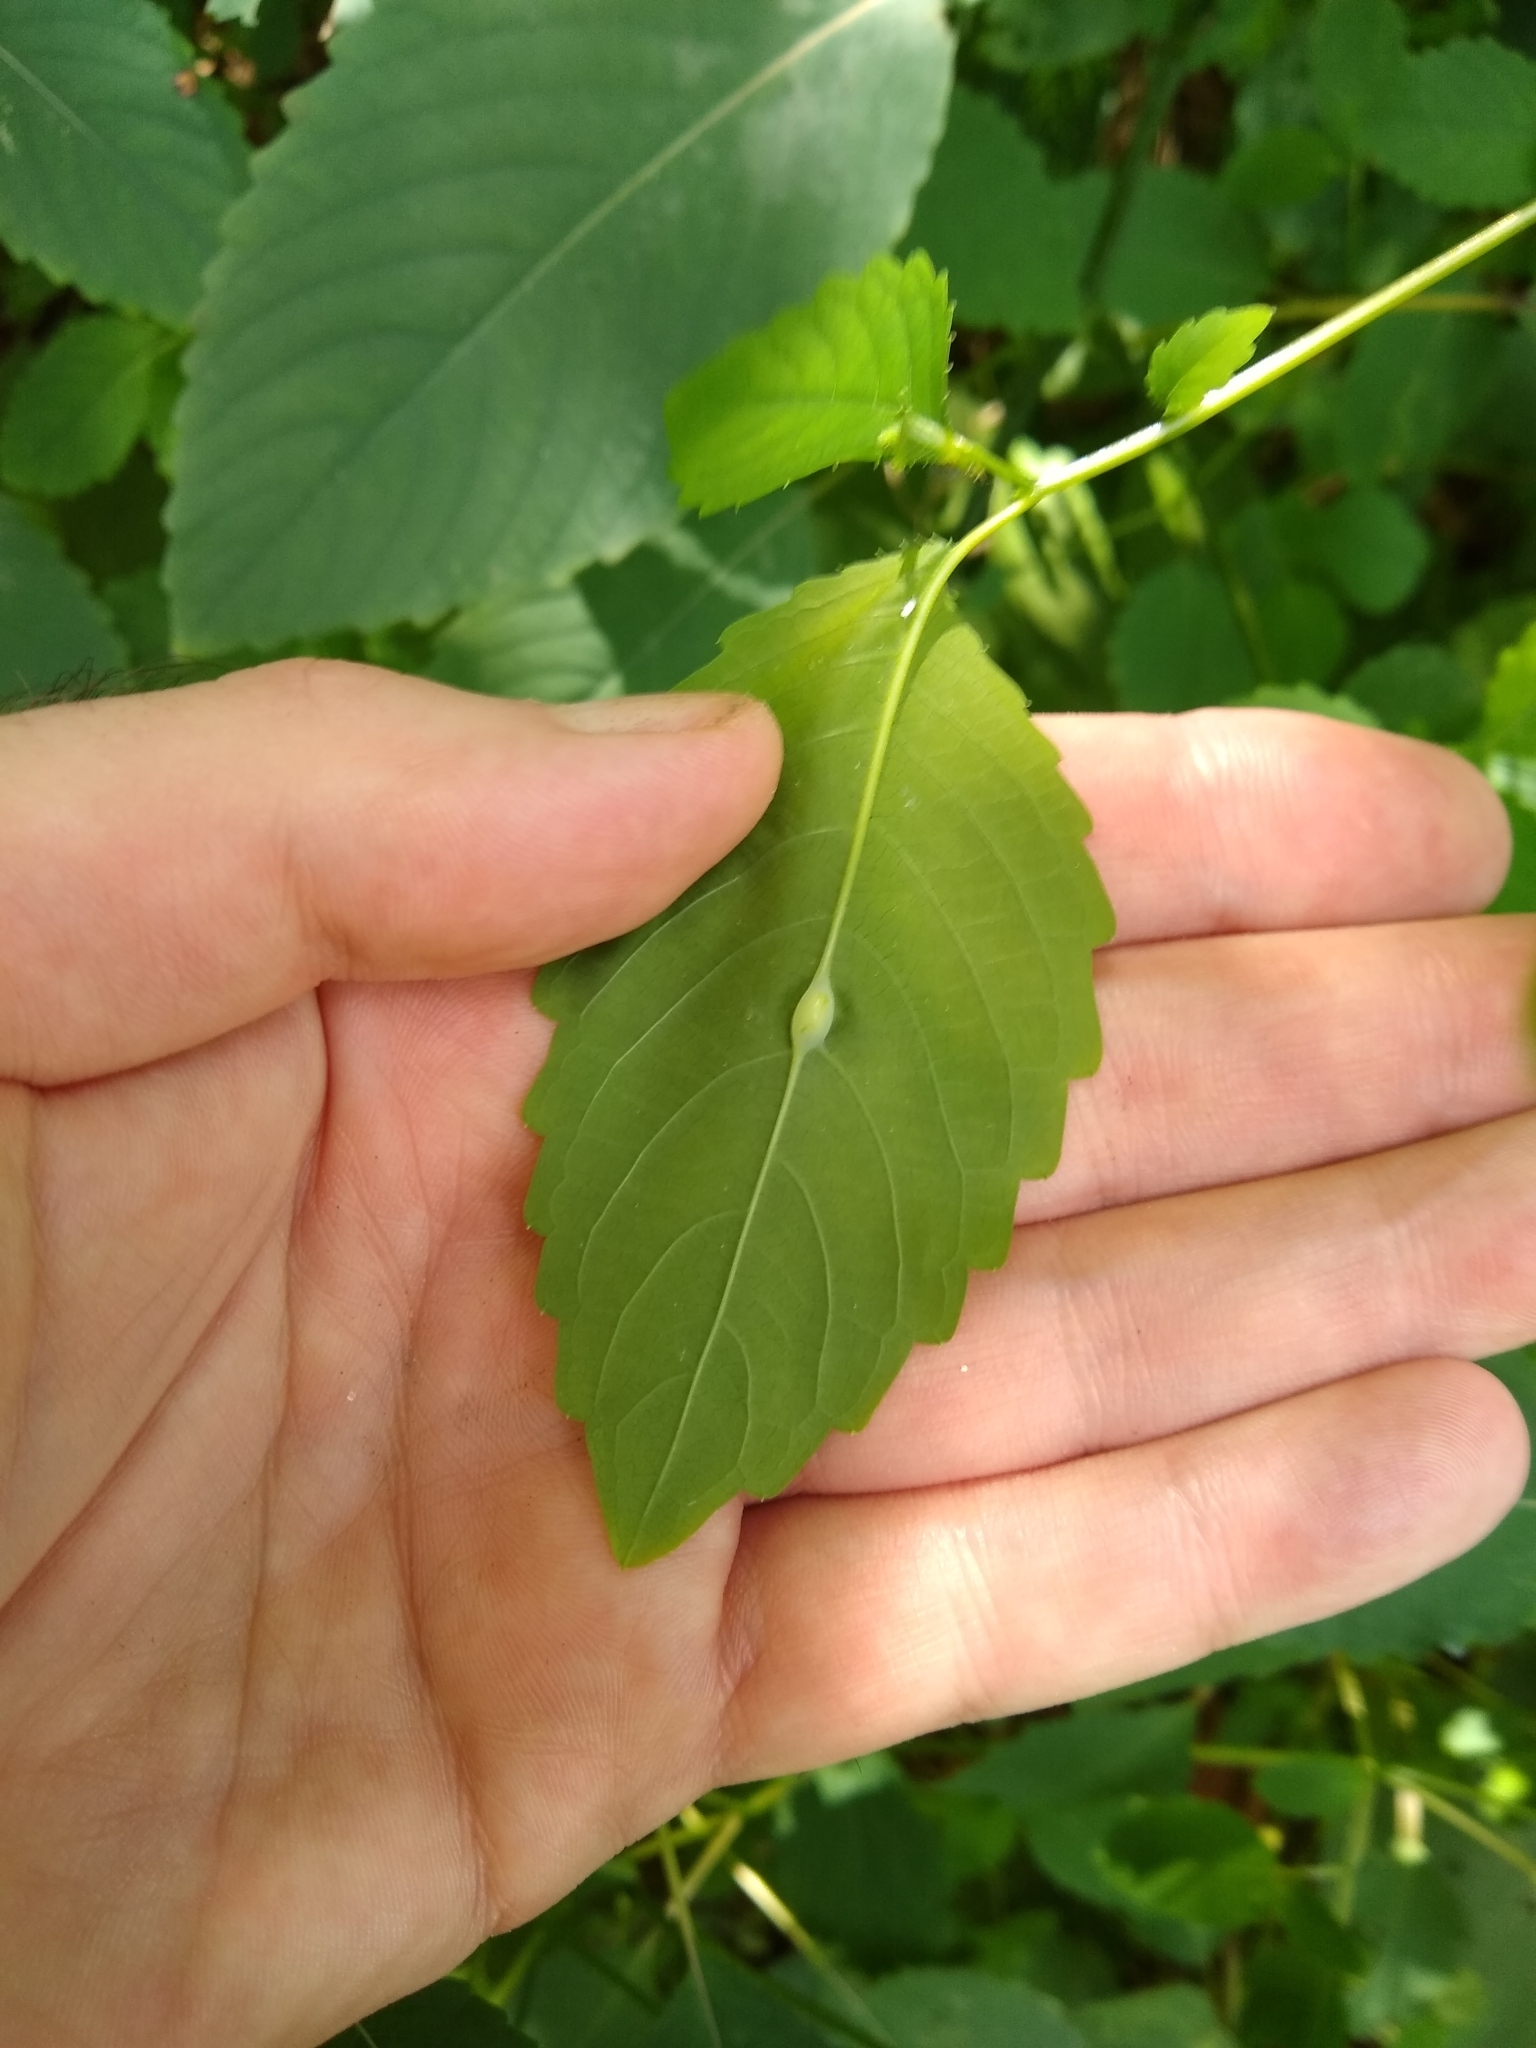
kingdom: Animalia
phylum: Arthropoda
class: Insecta
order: Diptera
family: Cecidomyiidae
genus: Neolasioptera
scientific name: Neolasioptera impatientifolia
